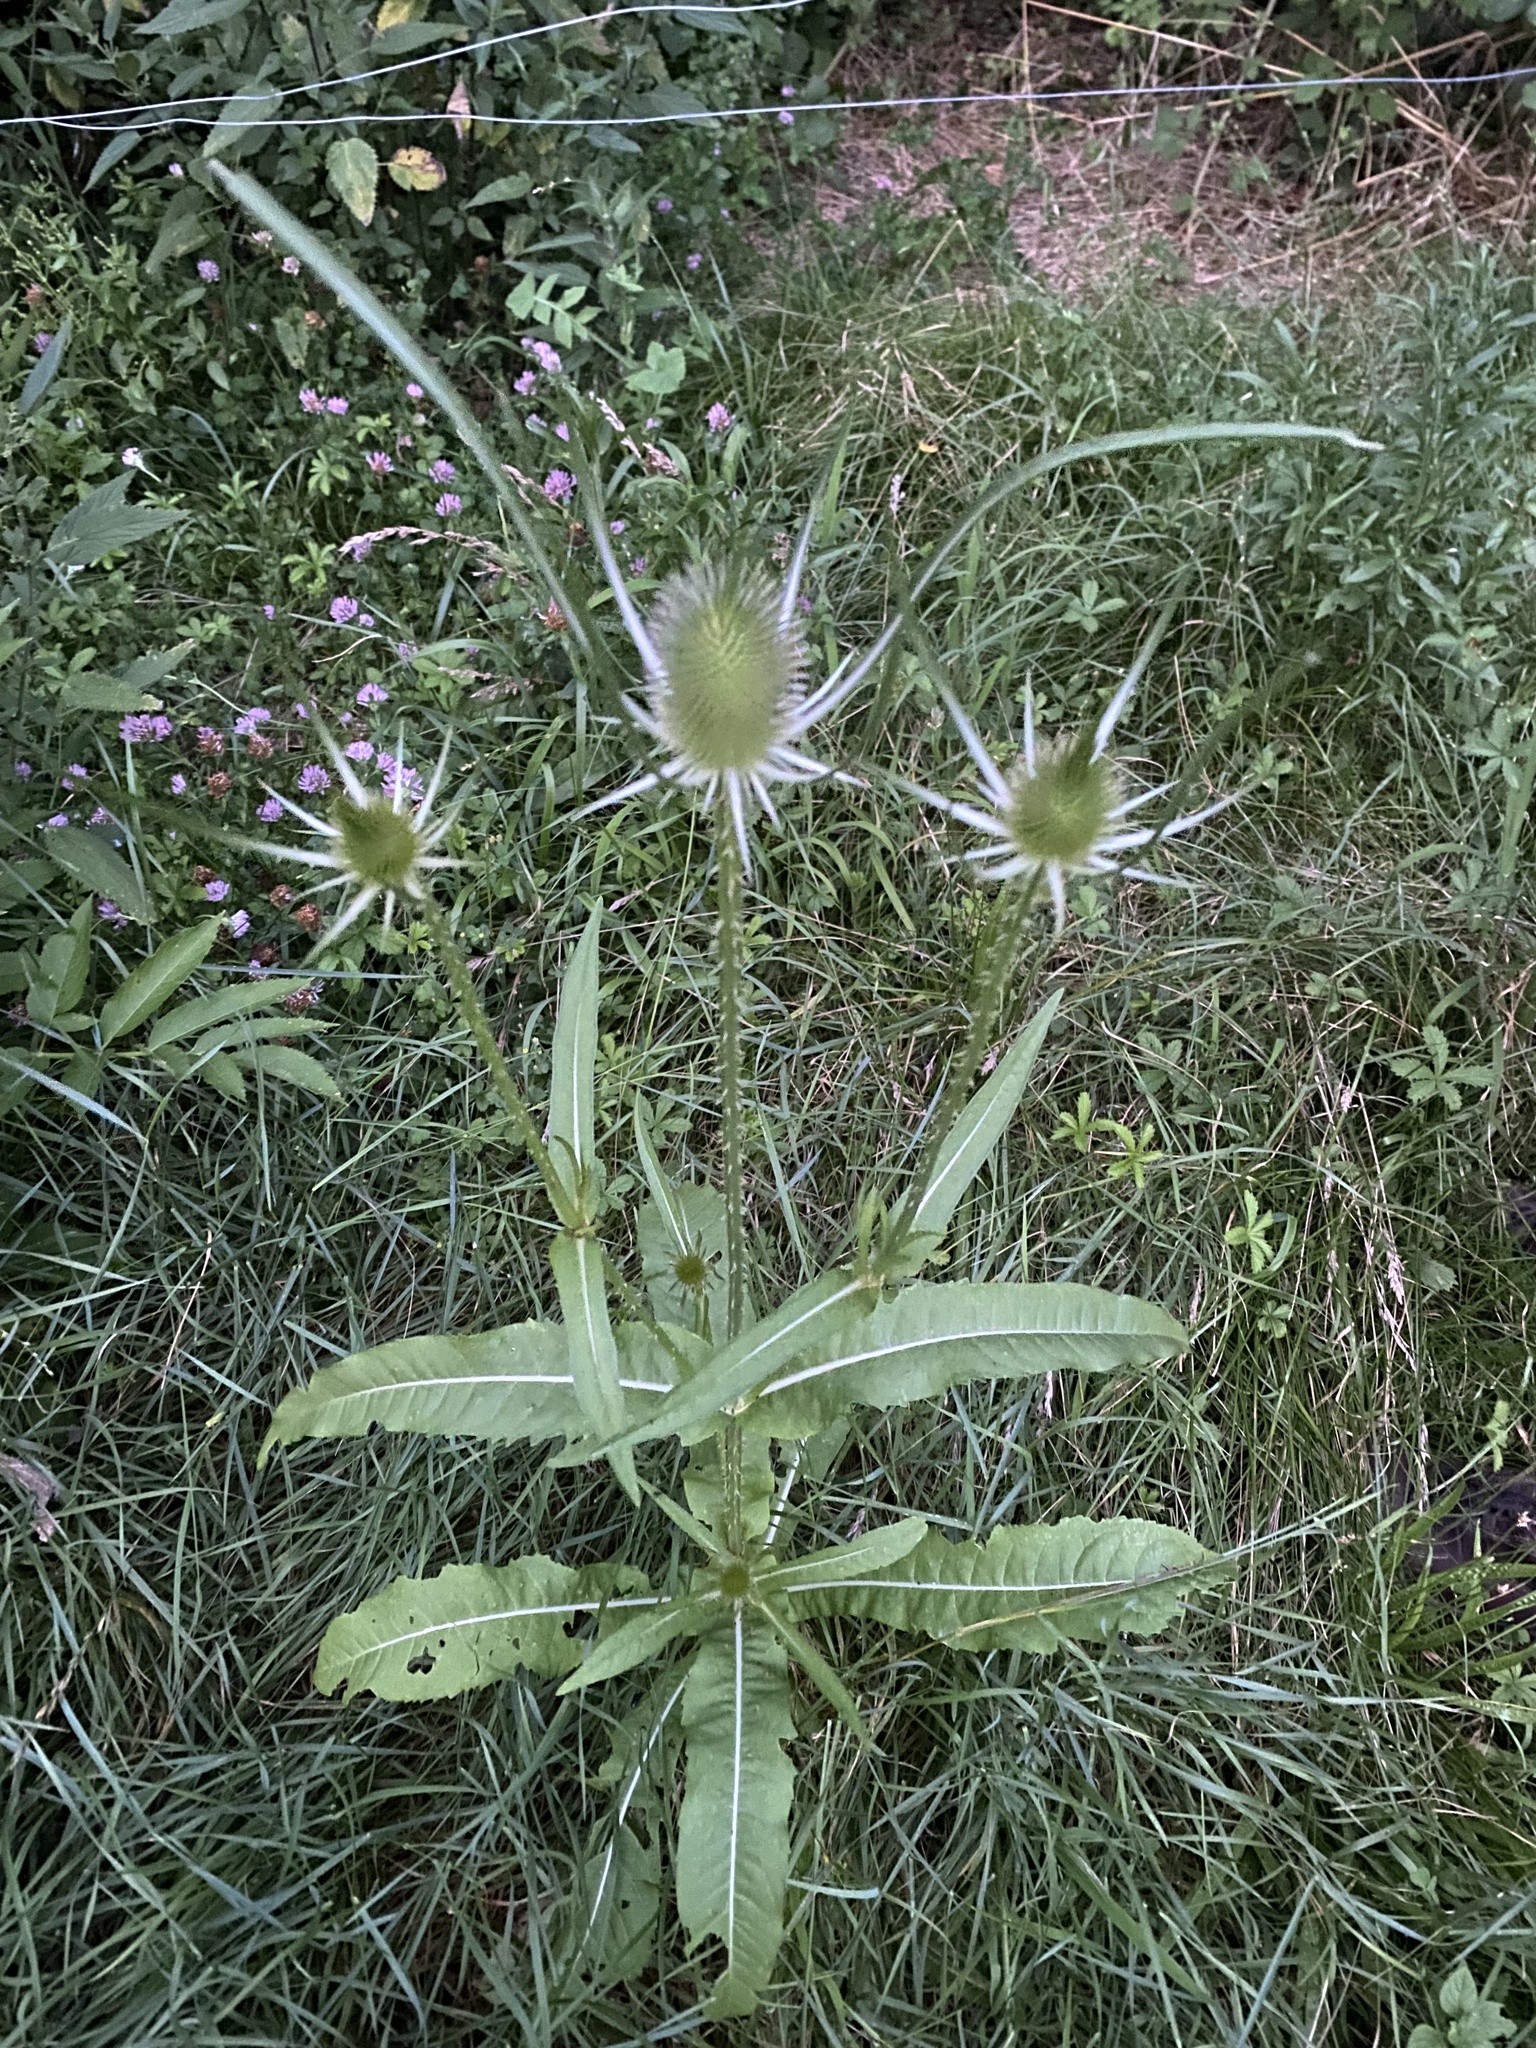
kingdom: Plantae
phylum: Tracheophyta
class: Magnoliopsida
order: Dipsacales
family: Caprifoliaceae
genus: Dipsacus
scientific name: Dipsacus fullonum
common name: Teasel
